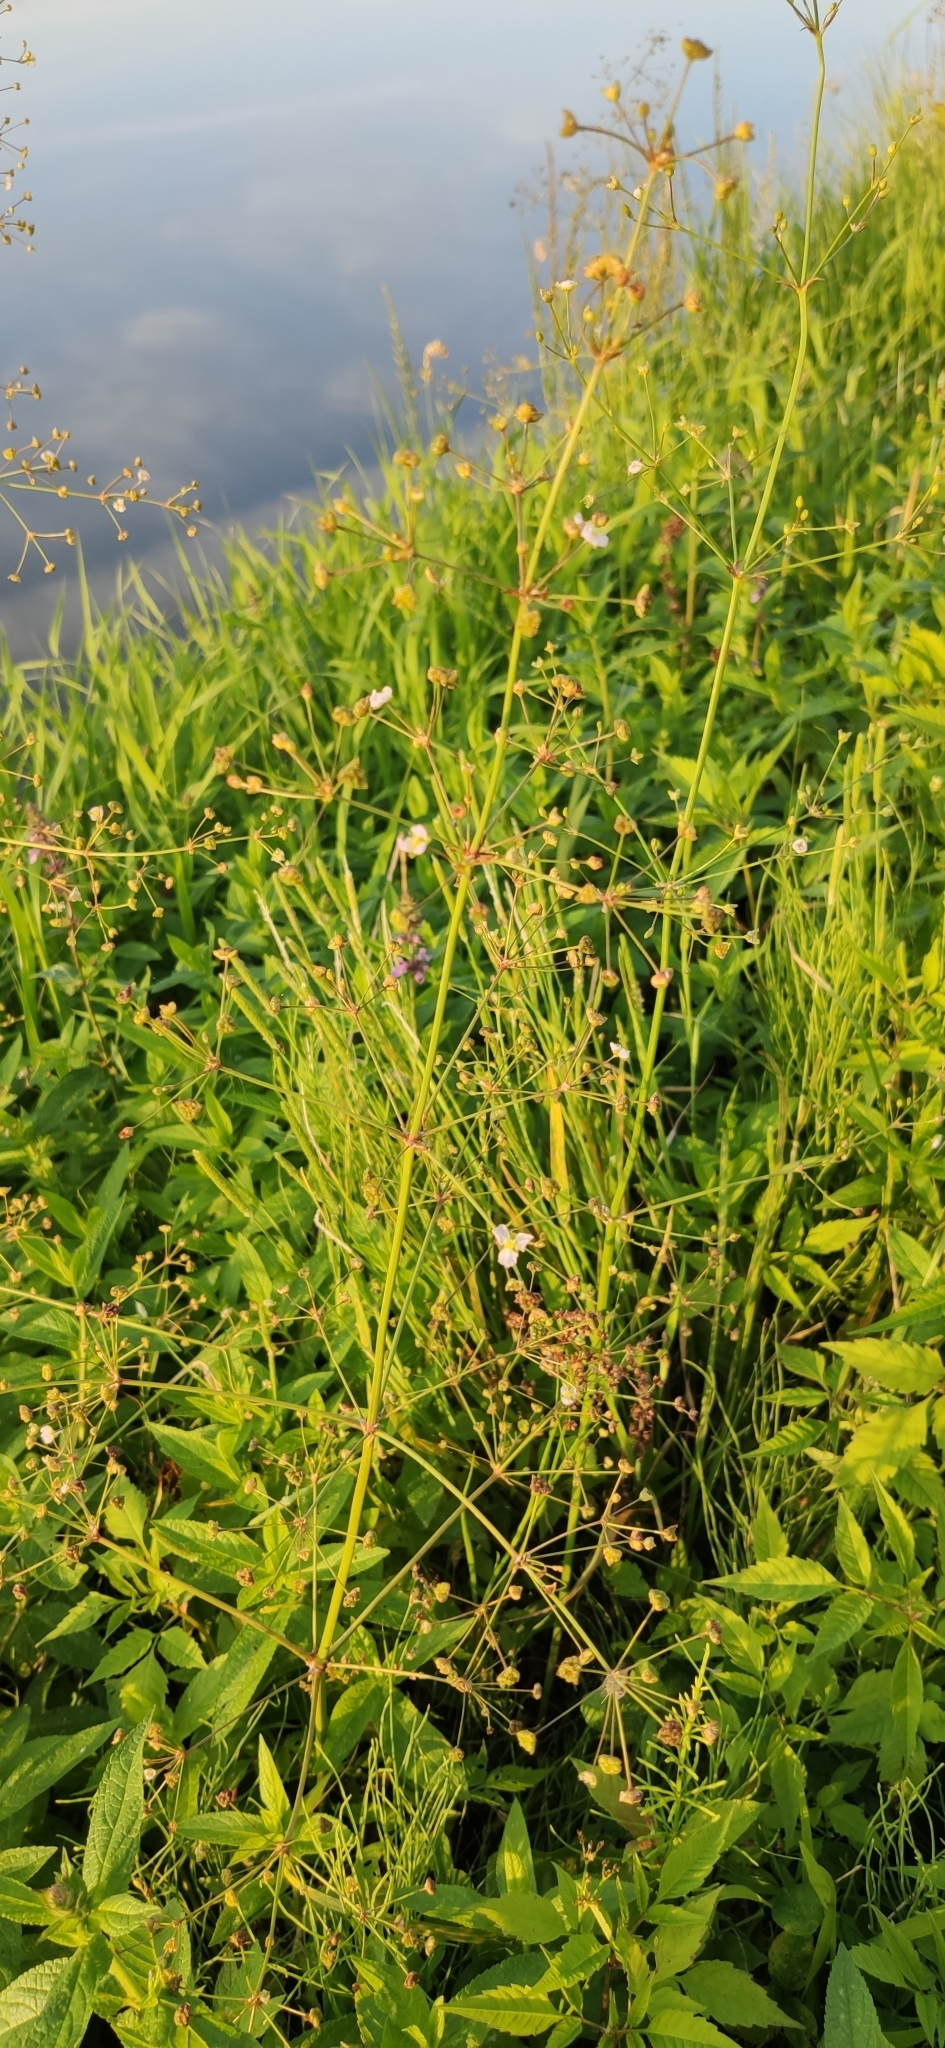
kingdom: Plantae
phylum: Tracheophyta
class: Liliopsida
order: Alismatales
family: Alismataceae
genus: Alisma
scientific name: Alisma plantago-aquatica
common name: Water-plantain
